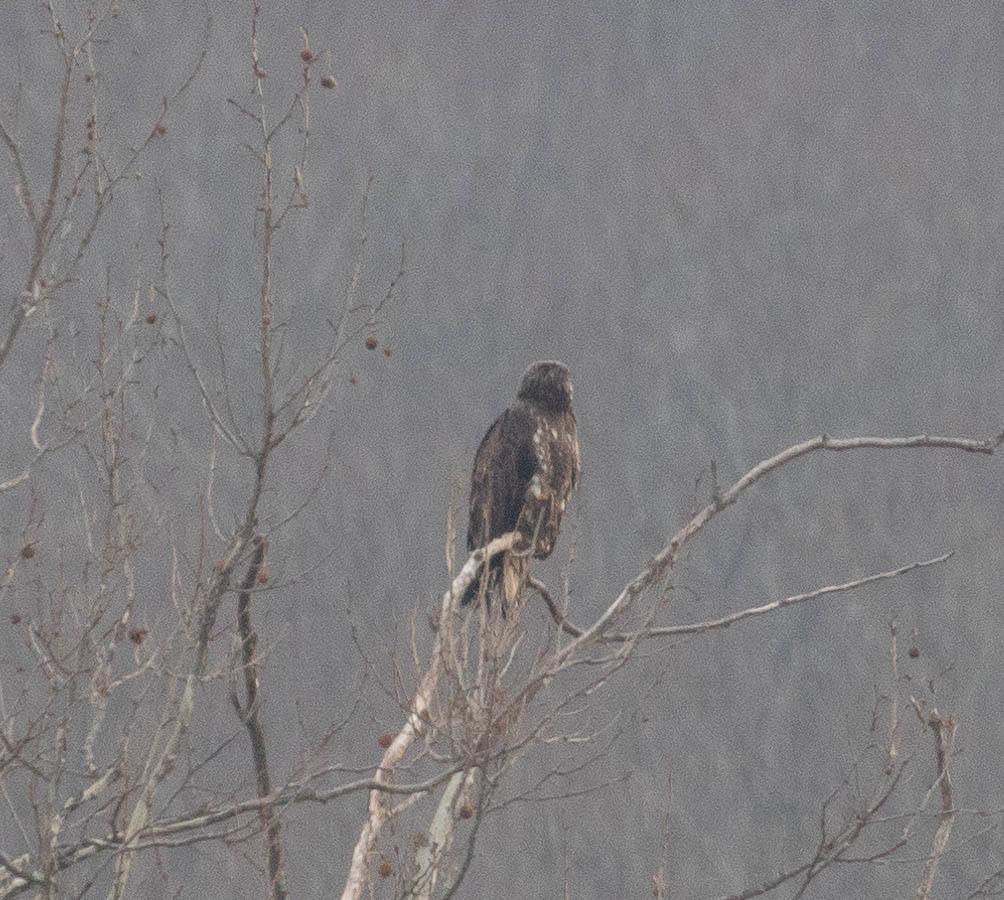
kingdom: Animalia
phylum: Chordata
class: Aves
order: Accipitriformes
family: Accipitridae
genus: Haliaeetus
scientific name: Haliaeetus leucocephalus
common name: Bald eagle
